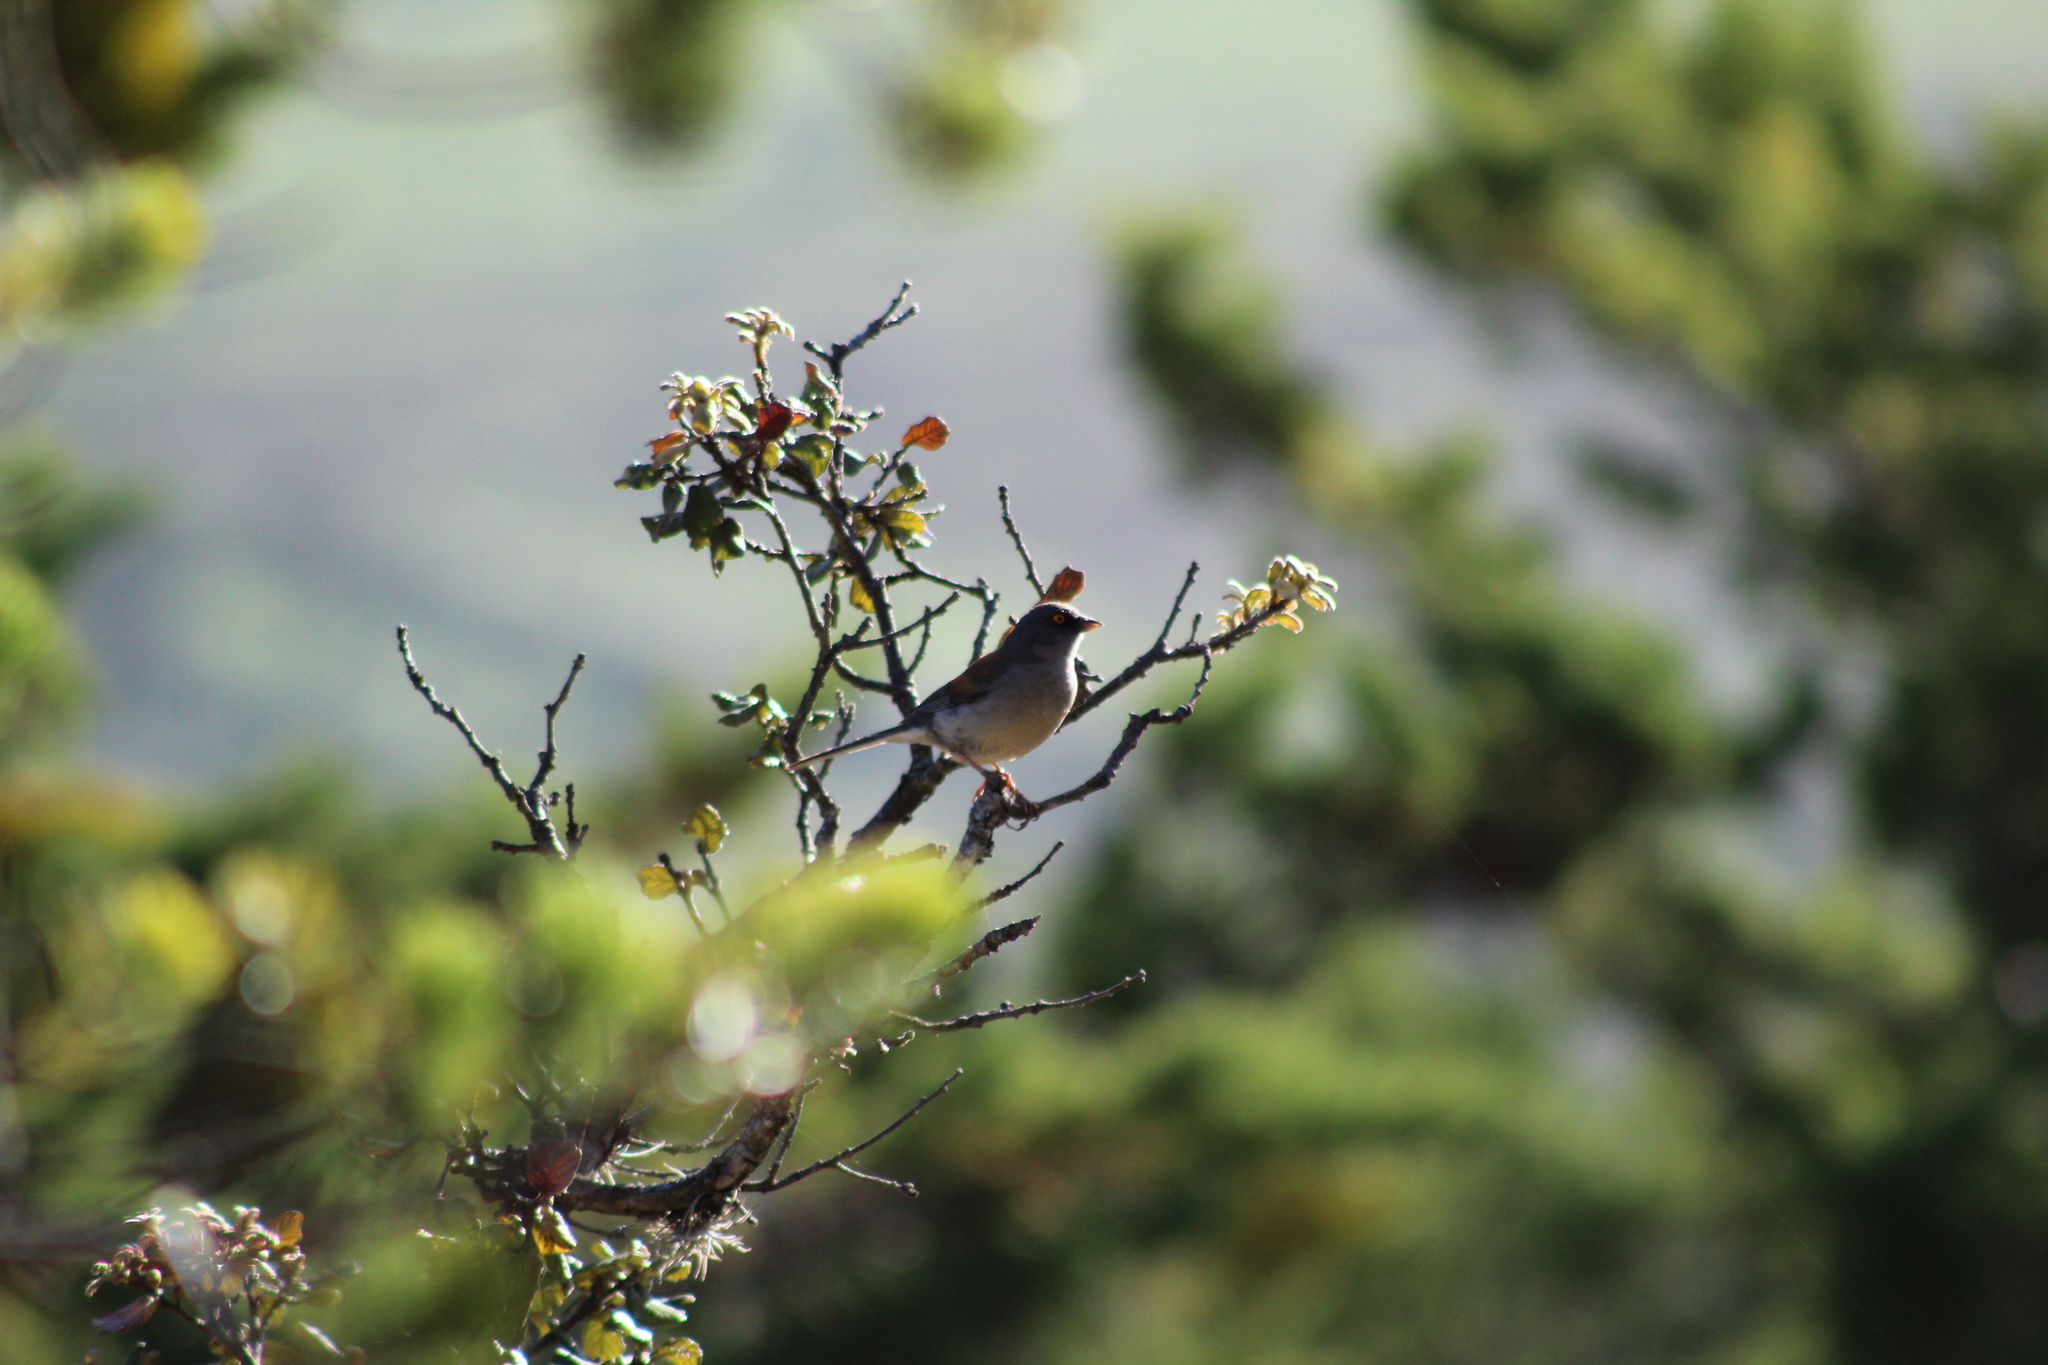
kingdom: Animalia
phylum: Chordata
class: Aves
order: Passeriformes
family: Passerellidae
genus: Junco
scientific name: Junco phaeonotus
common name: Yellow-eyed junco
